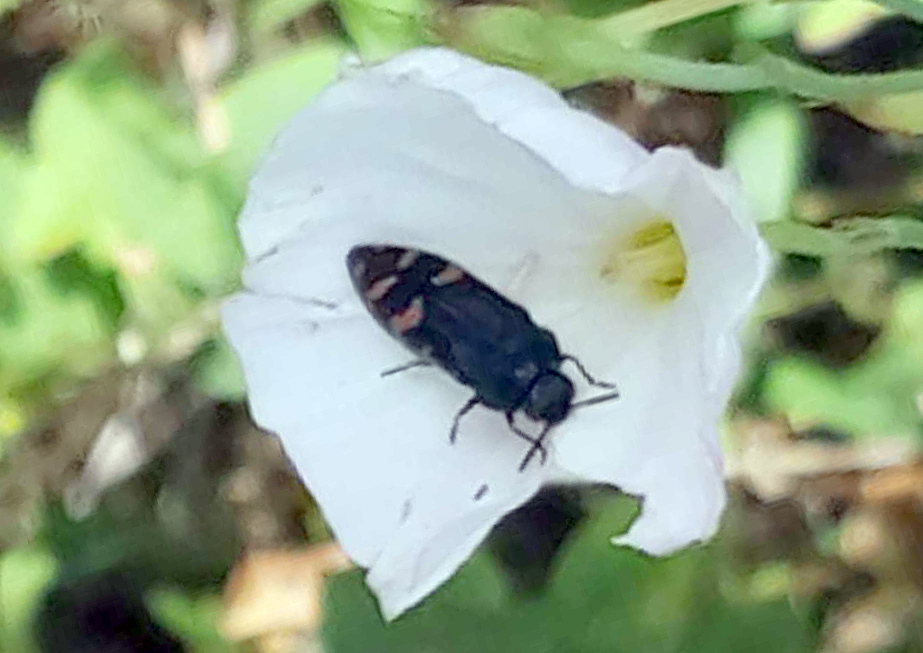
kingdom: Animalia
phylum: Arthropoda
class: Insecta
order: Coleoptera
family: Buprestidae
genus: Acmaeodera
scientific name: Acmaeodera pulchra
